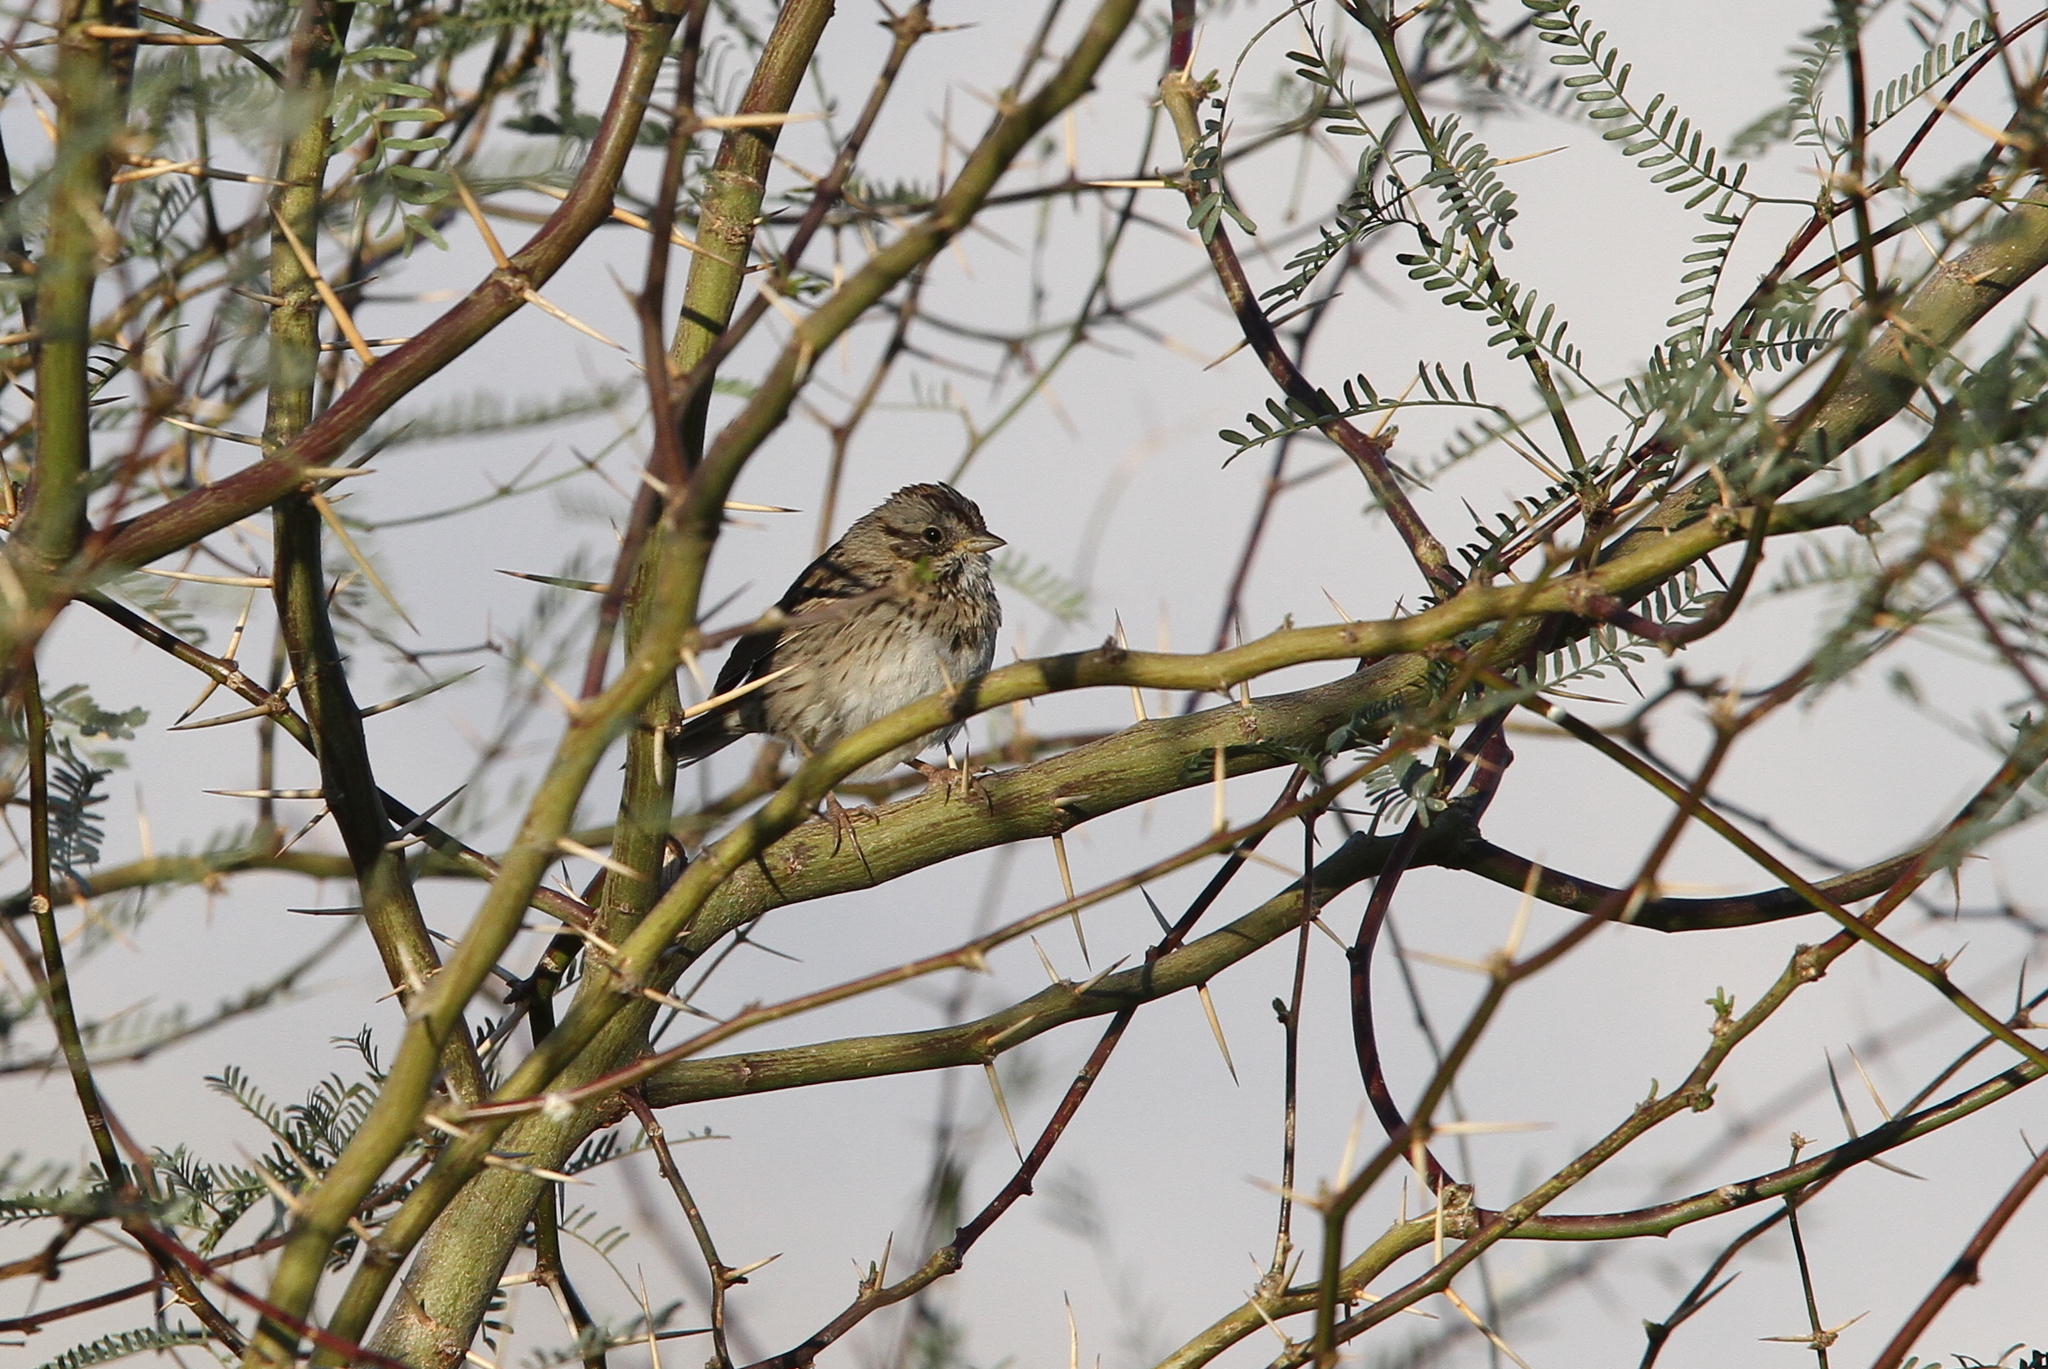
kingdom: Animalia
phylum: Chordata
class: Aves
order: Passeriformes
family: Passerellidae
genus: Melospiza
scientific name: Melospiza lincolnii
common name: Lincoln's sparrow
